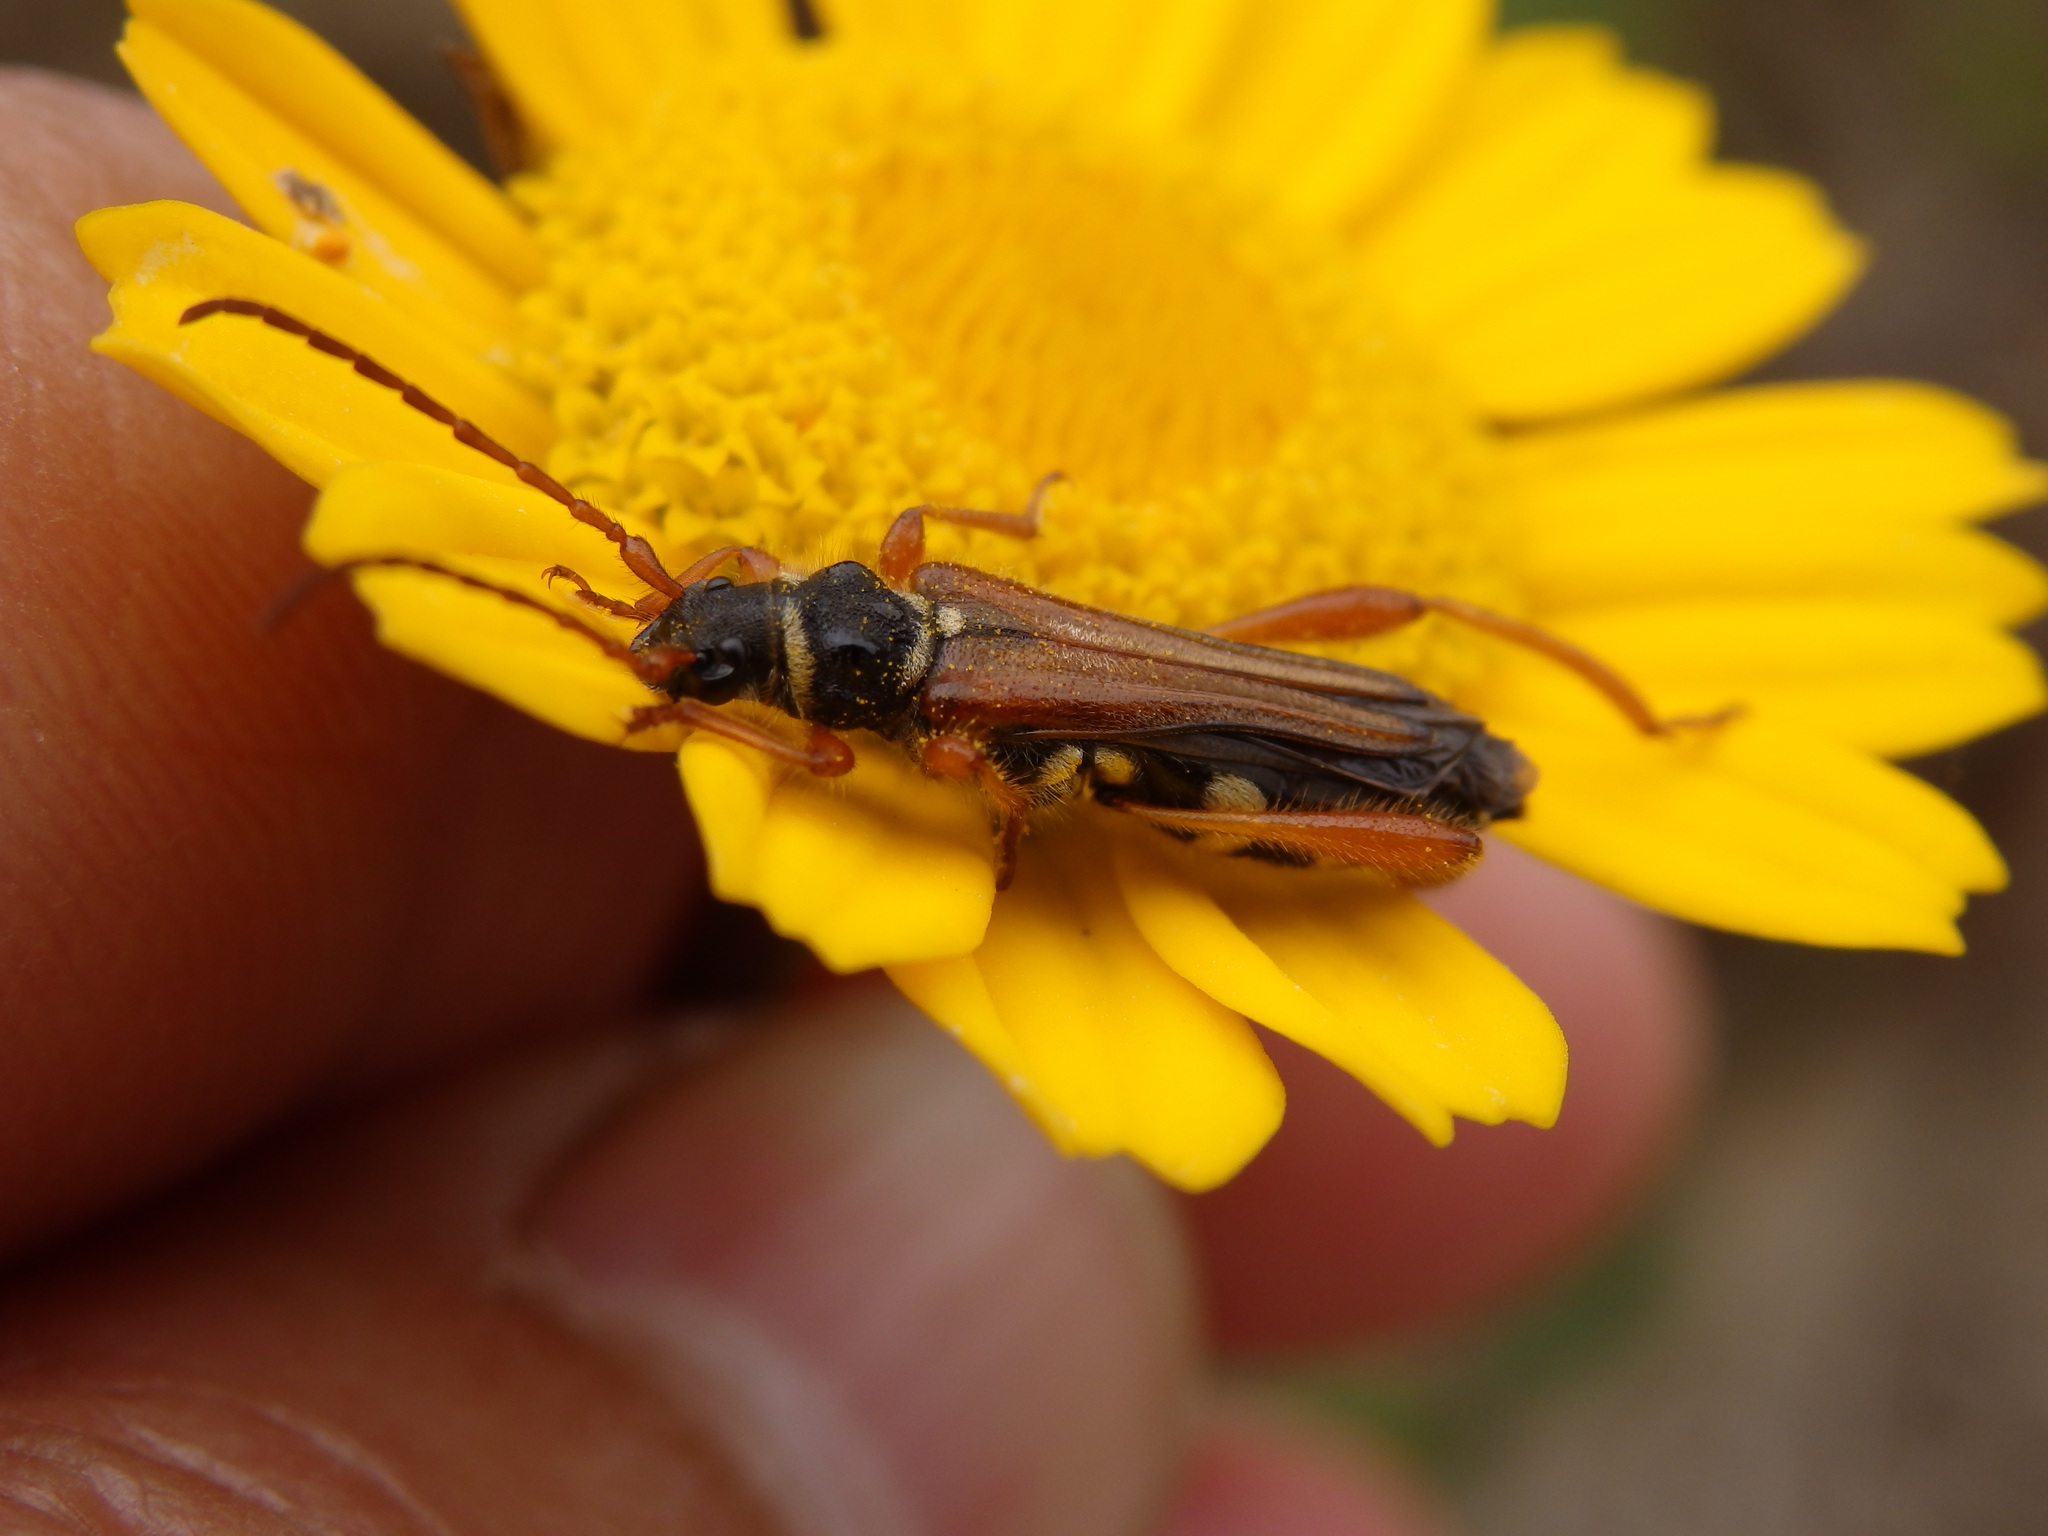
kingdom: Animalia
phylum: Arthropoda
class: Insecta
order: Coleoptera
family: Cerambycidae
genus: Stenopterus
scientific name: Stenopterus mauritanicus
